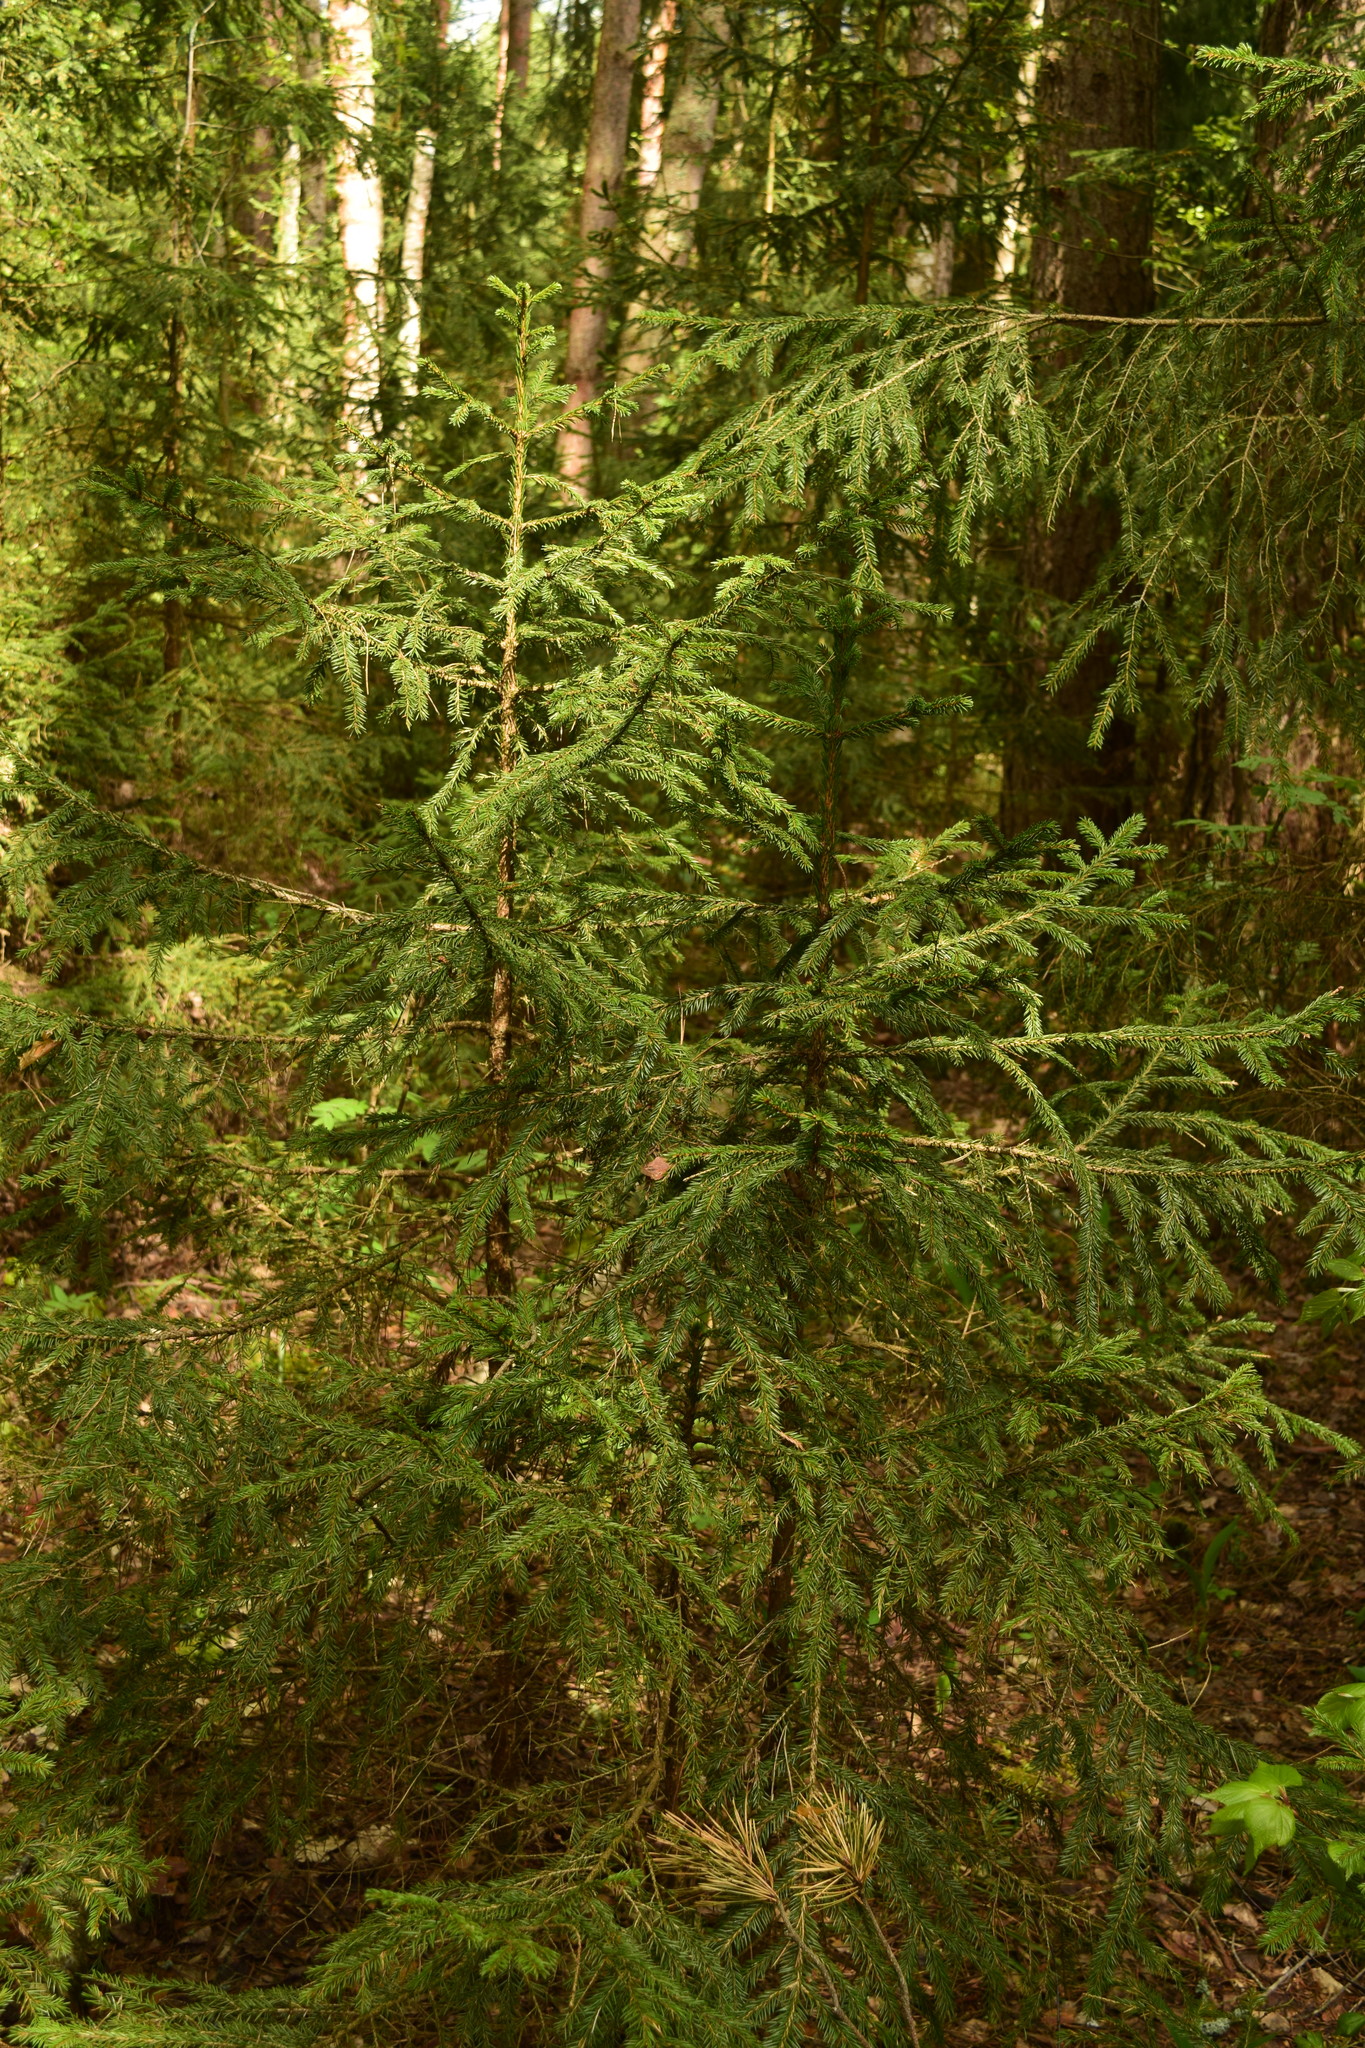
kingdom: Plantae
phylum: Tracheophyta
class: Pinopsida
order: Pinales
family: Pinaceae
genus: Picea
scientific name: Picea abies
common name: Norway spruce
